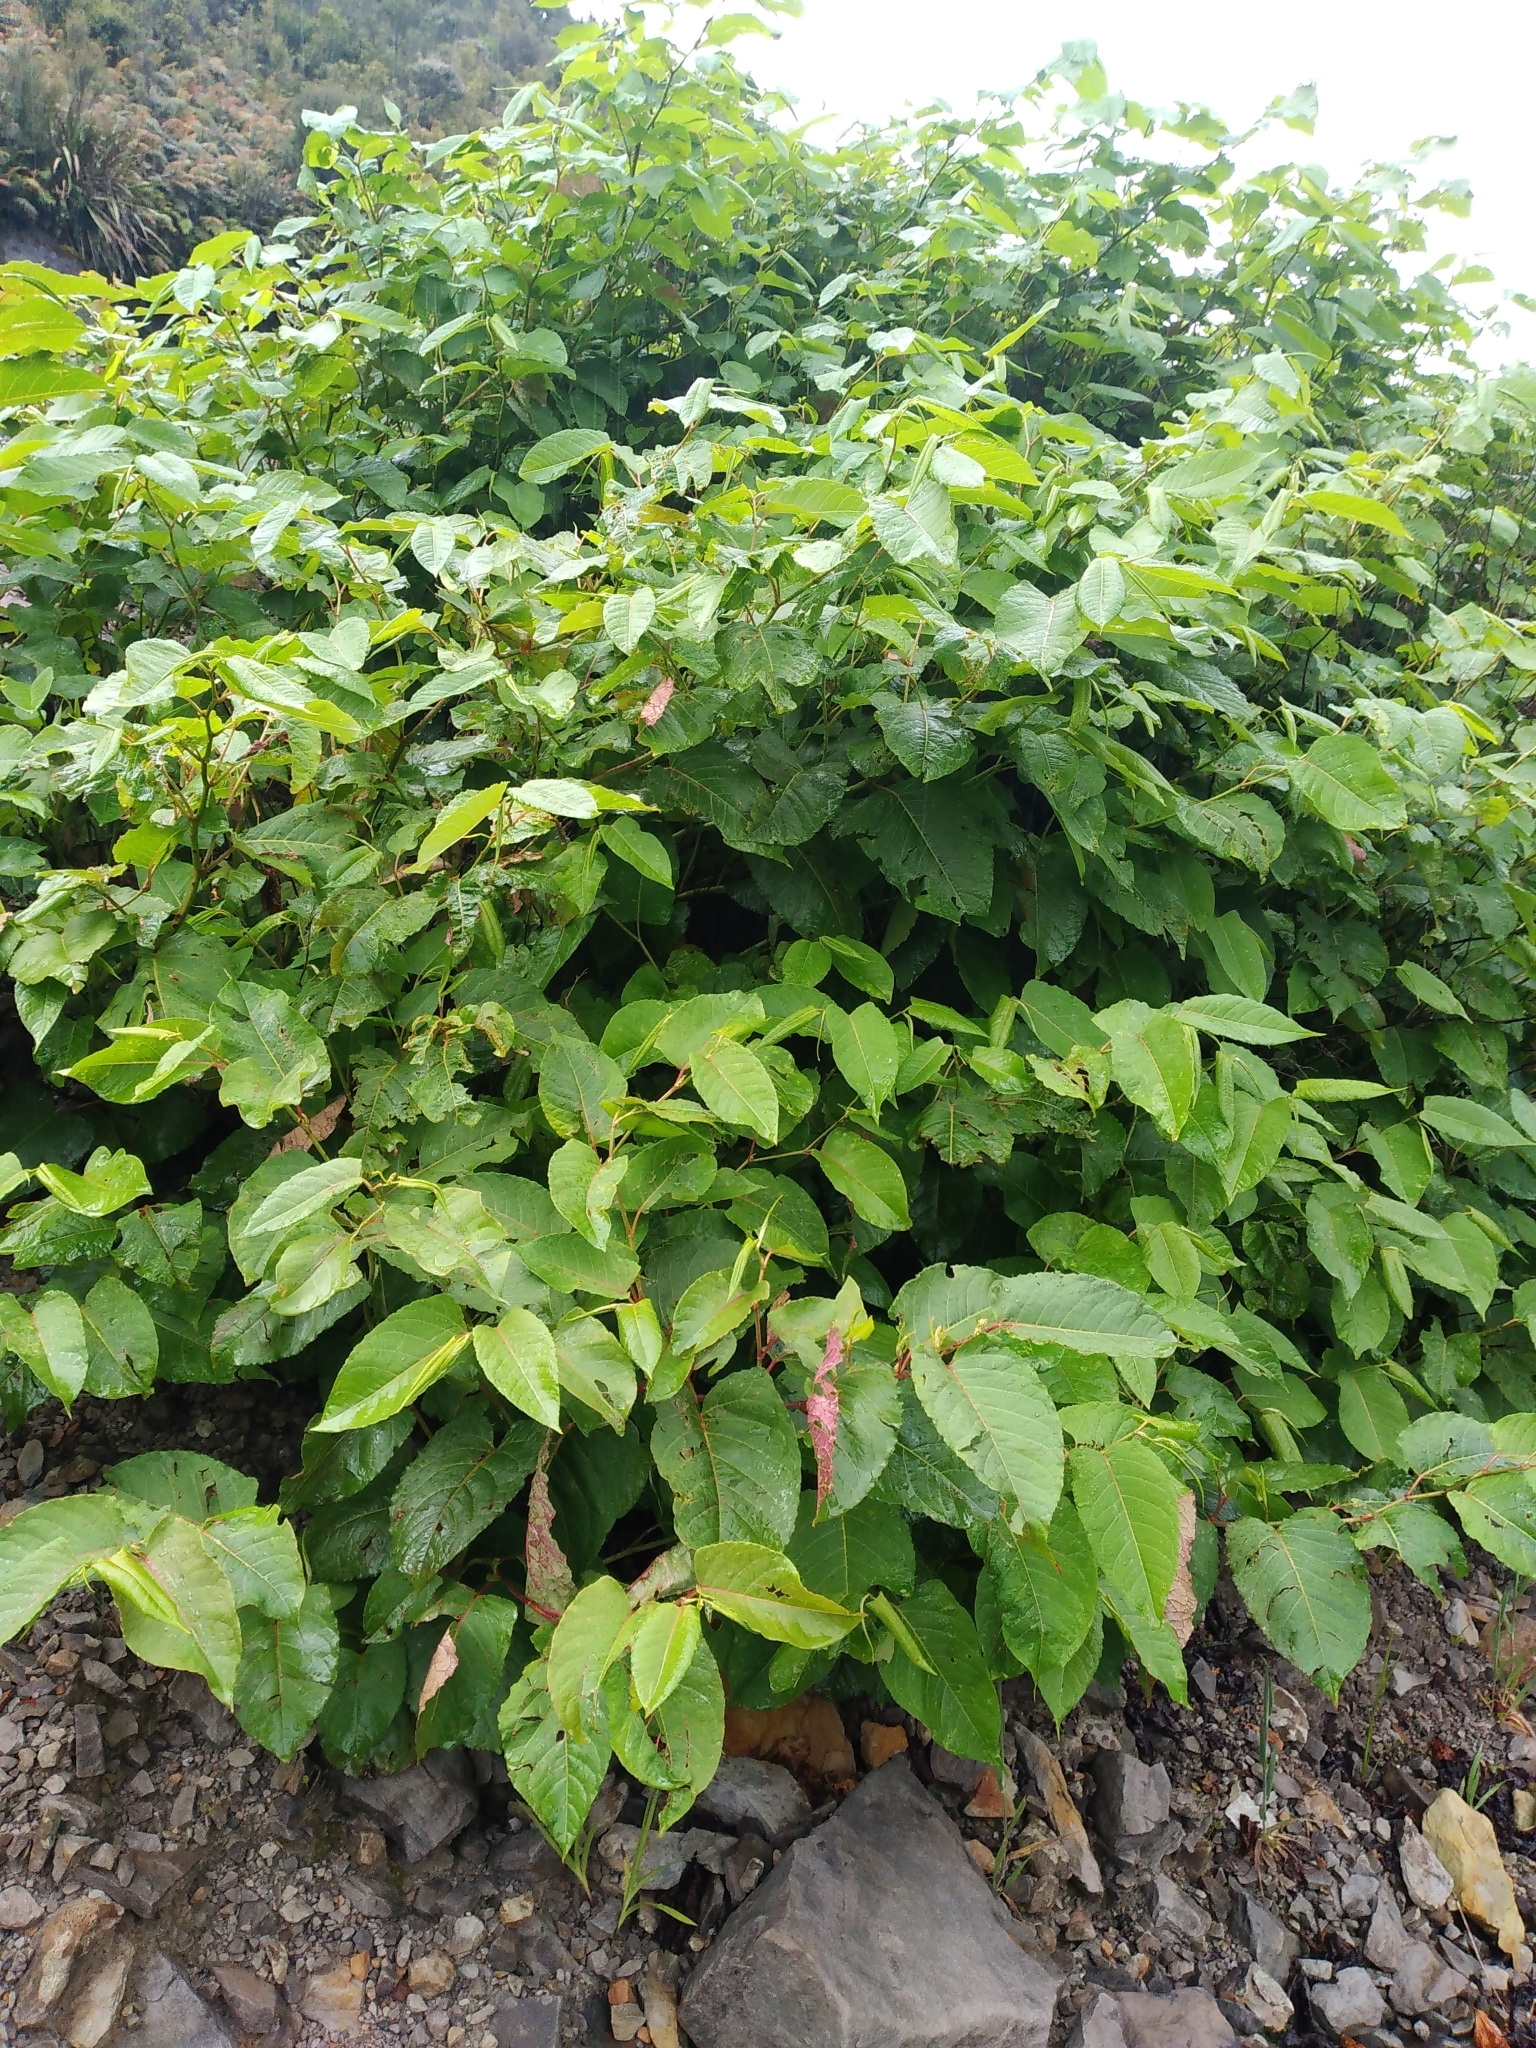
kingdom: Plantae
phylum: Tracheophyta
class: Magnoliopsida
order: Caryophyllales
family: Polygonaceae
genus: Reynoutria
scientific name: Reynoutria japonica
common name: Japanese knotweed
